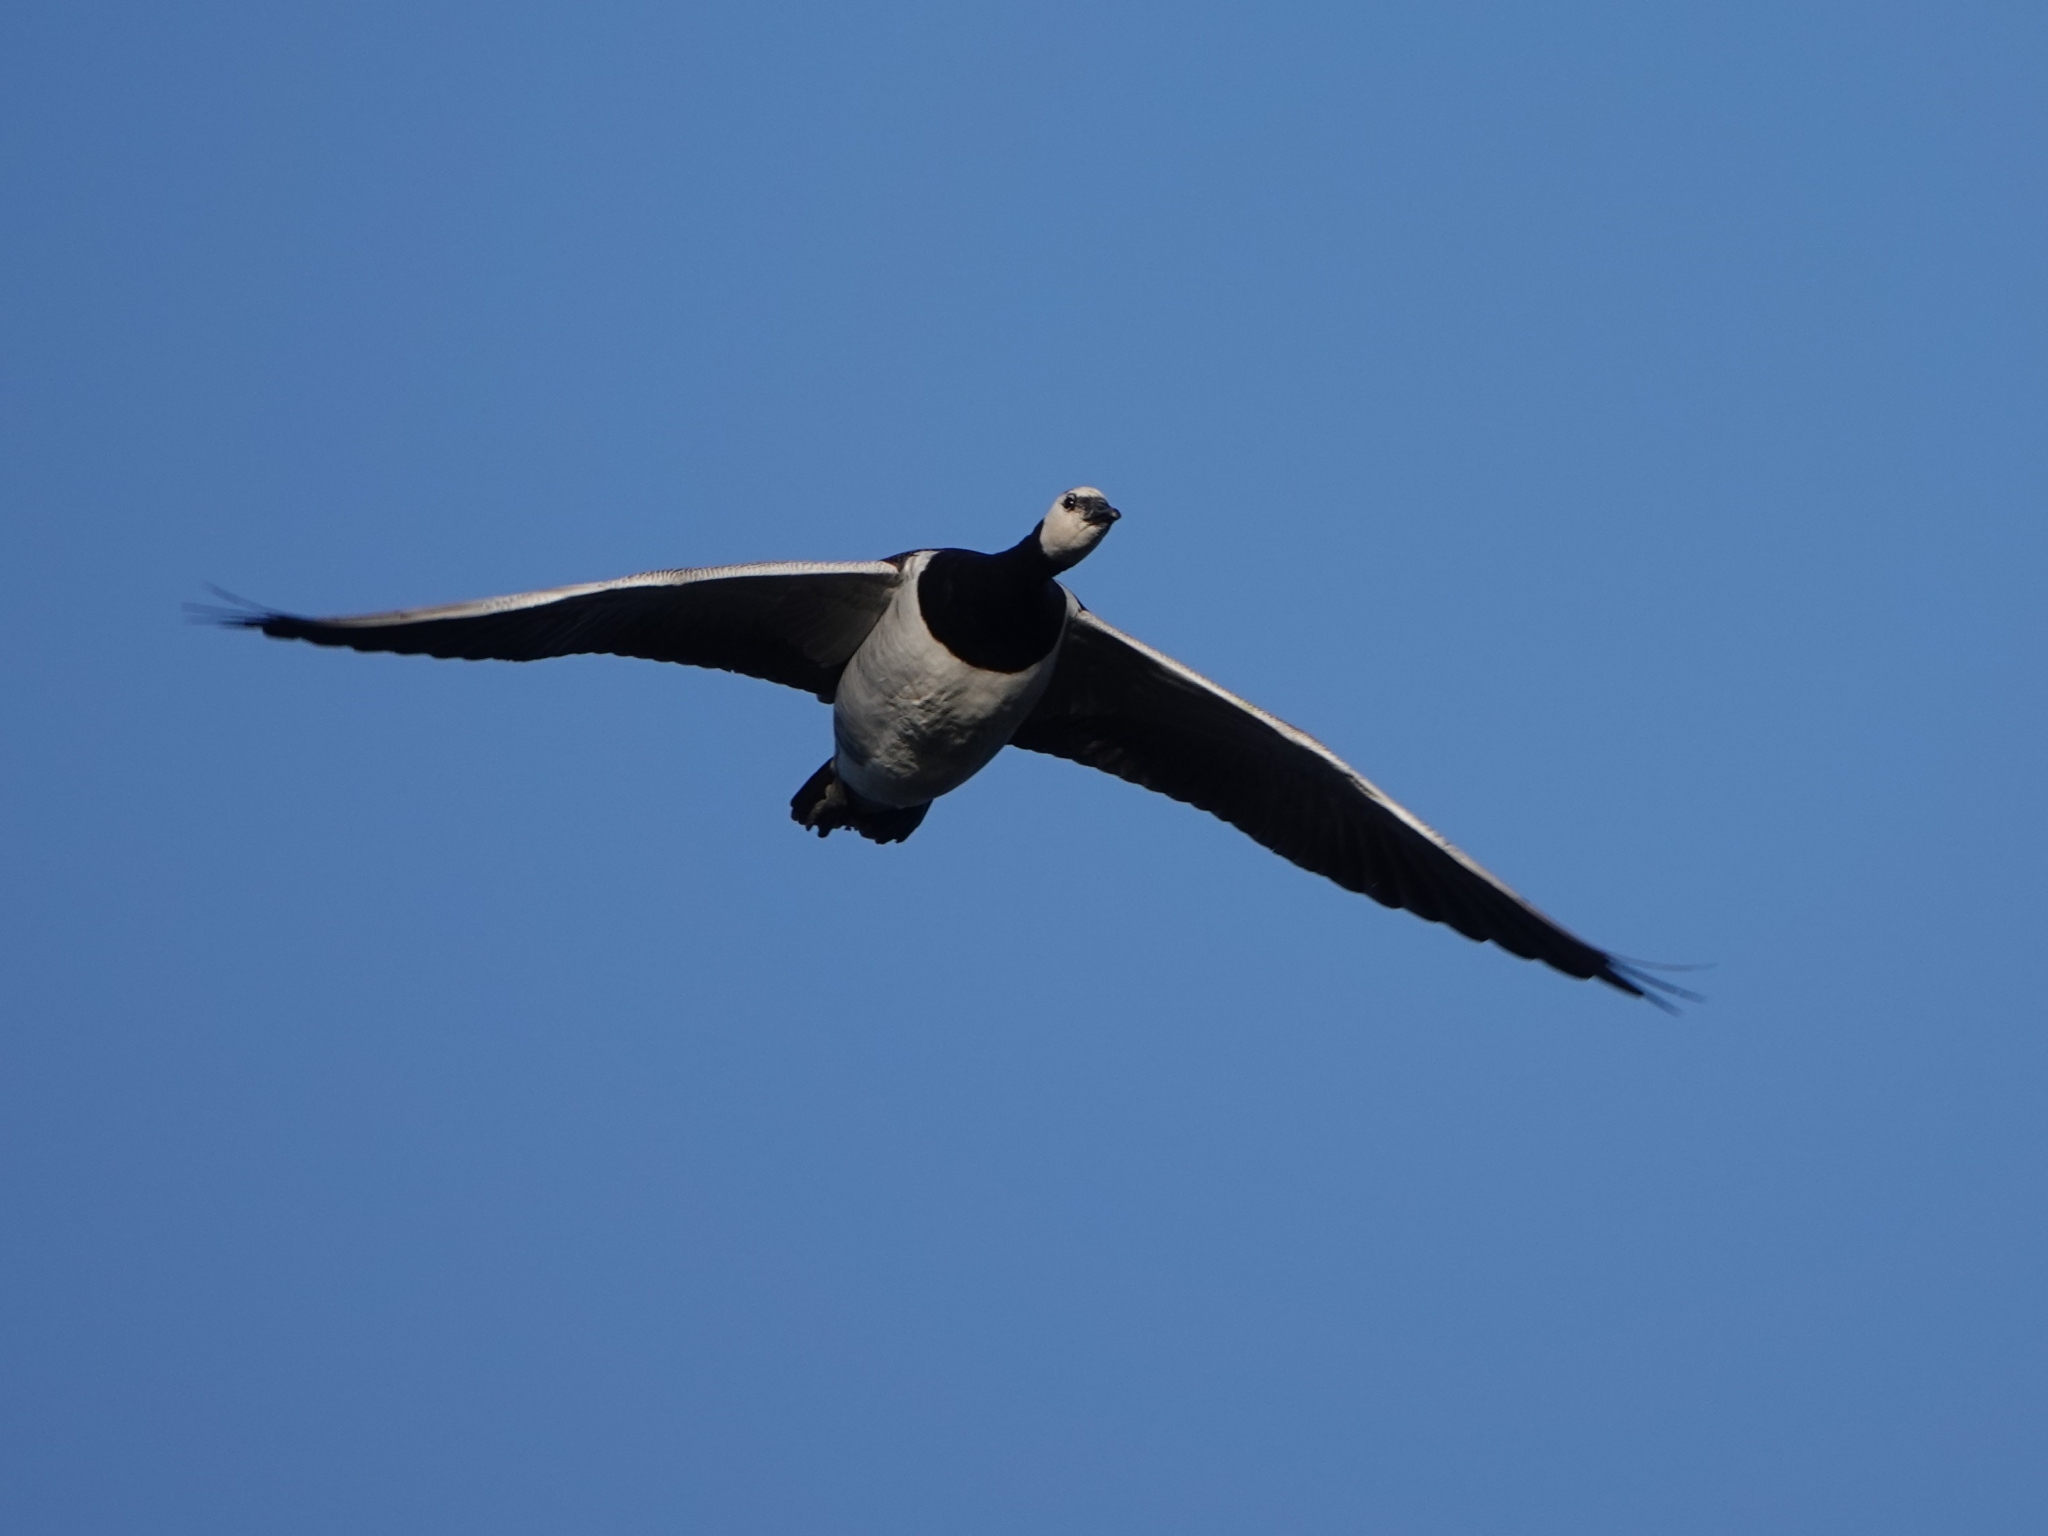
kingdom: Animalia
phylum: Chordata
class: Aves
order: Anseriformes
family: Anatidae
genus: Branta
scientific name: Branta leucopsis
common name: Barnacle goose
